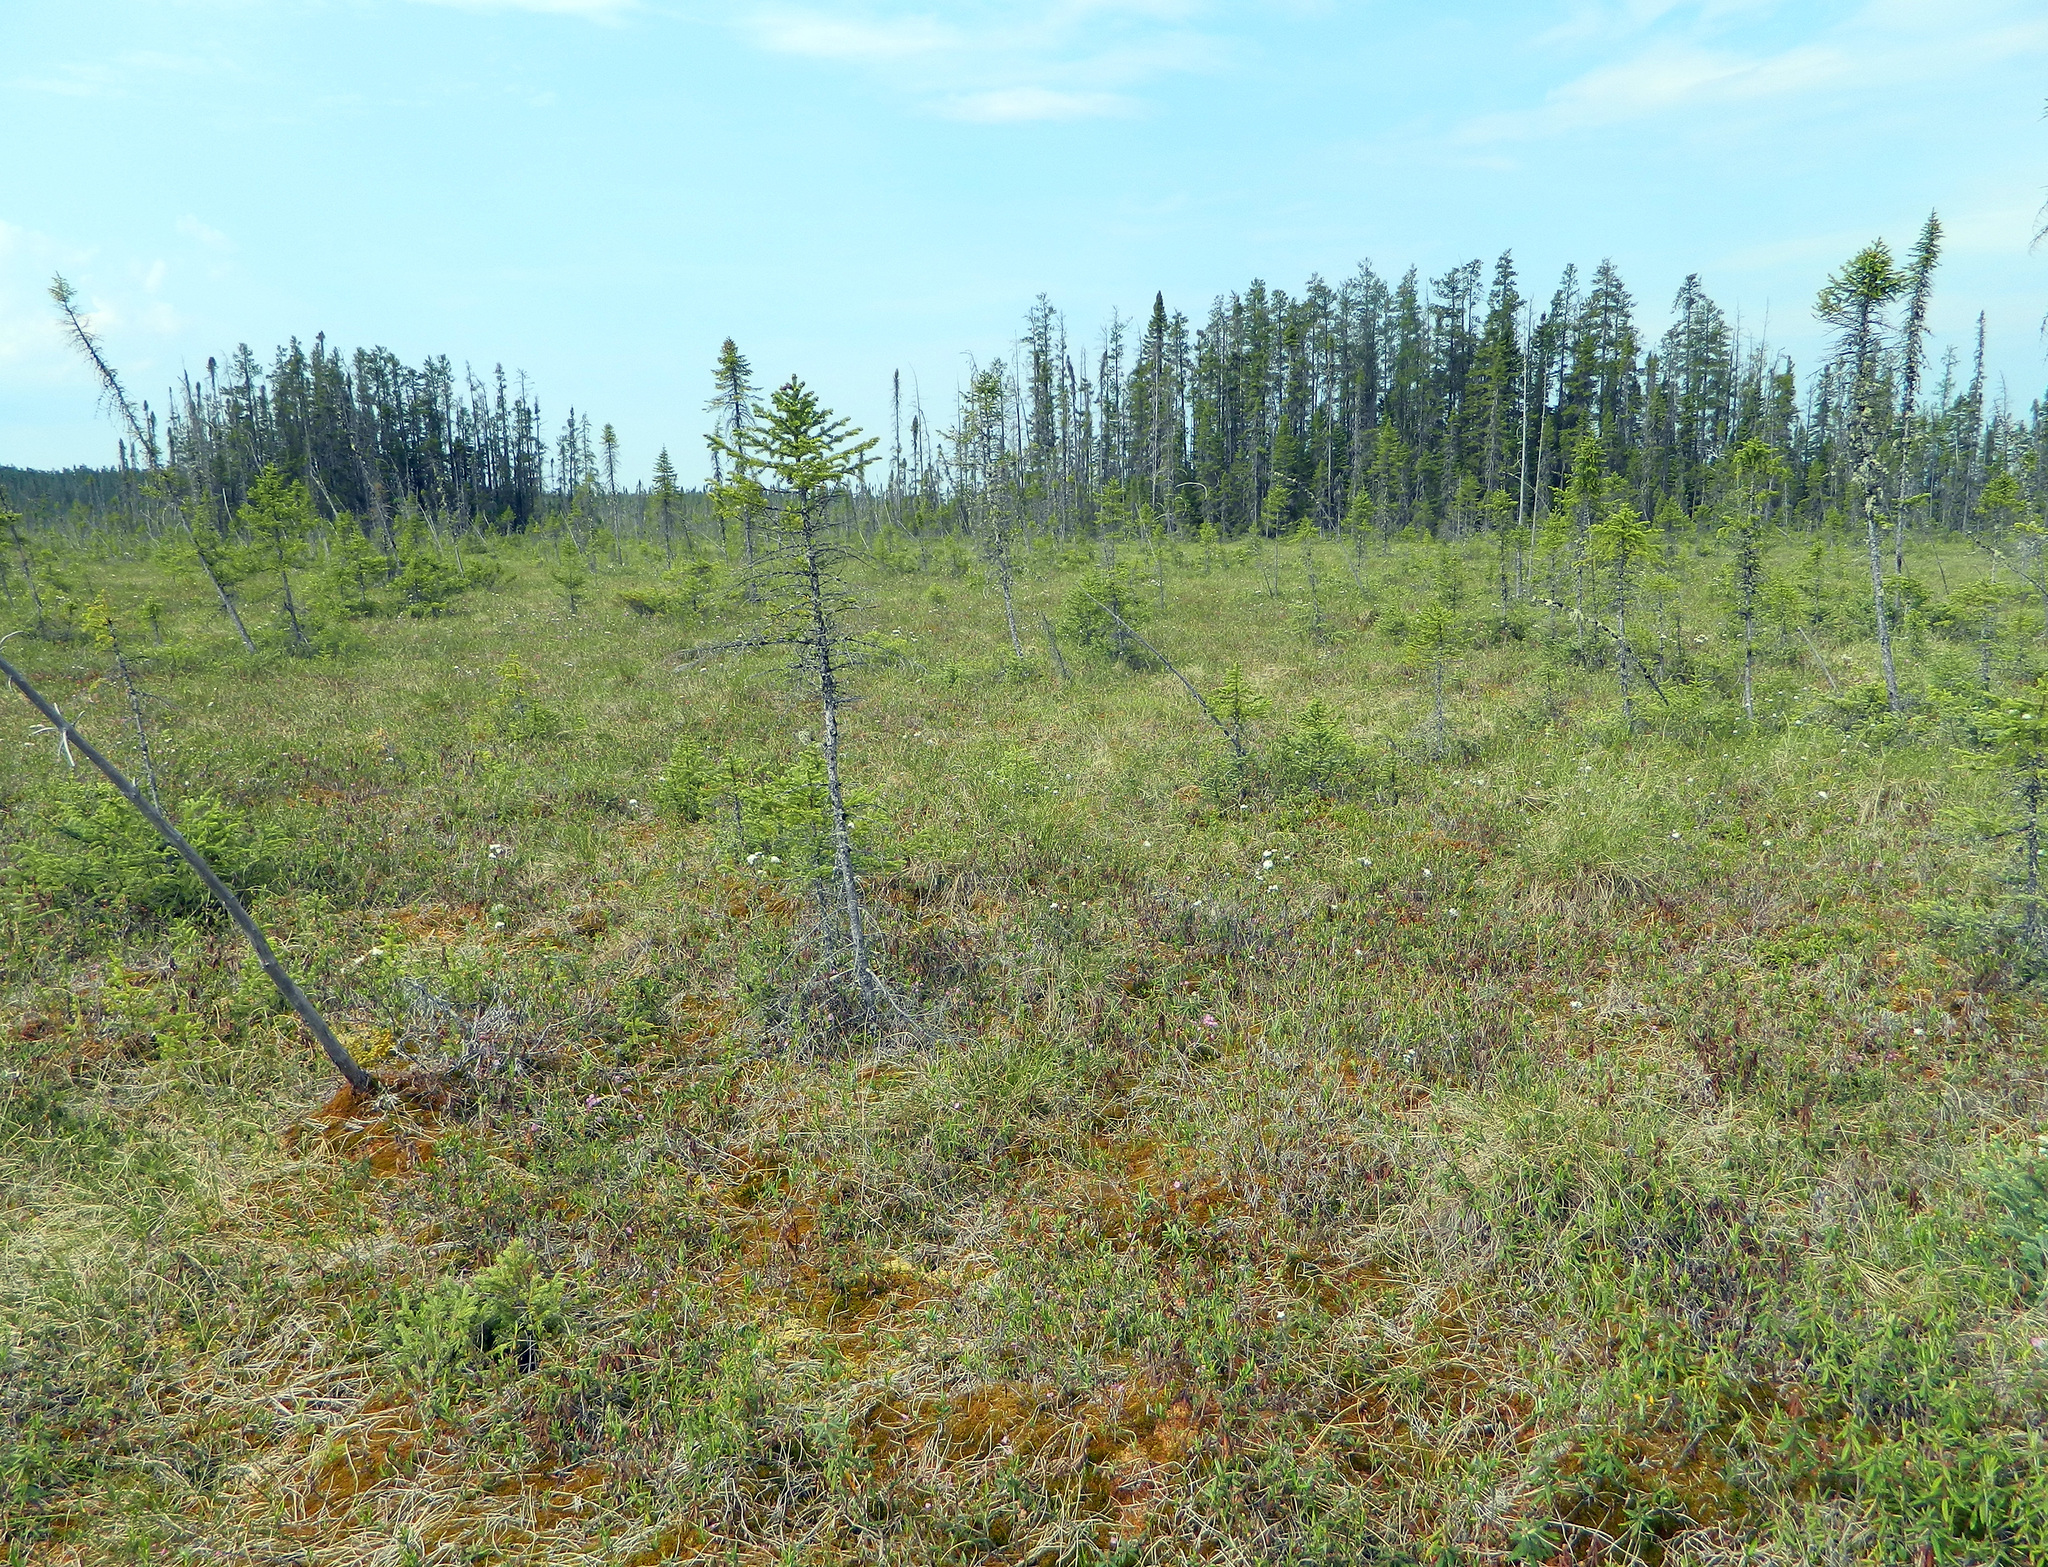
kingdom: Plantae
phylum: Tracheophyta
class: Pinopsida
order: Pinales
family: Pinaceae
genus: Picea
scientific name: Picea mariana
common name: Black spruce
